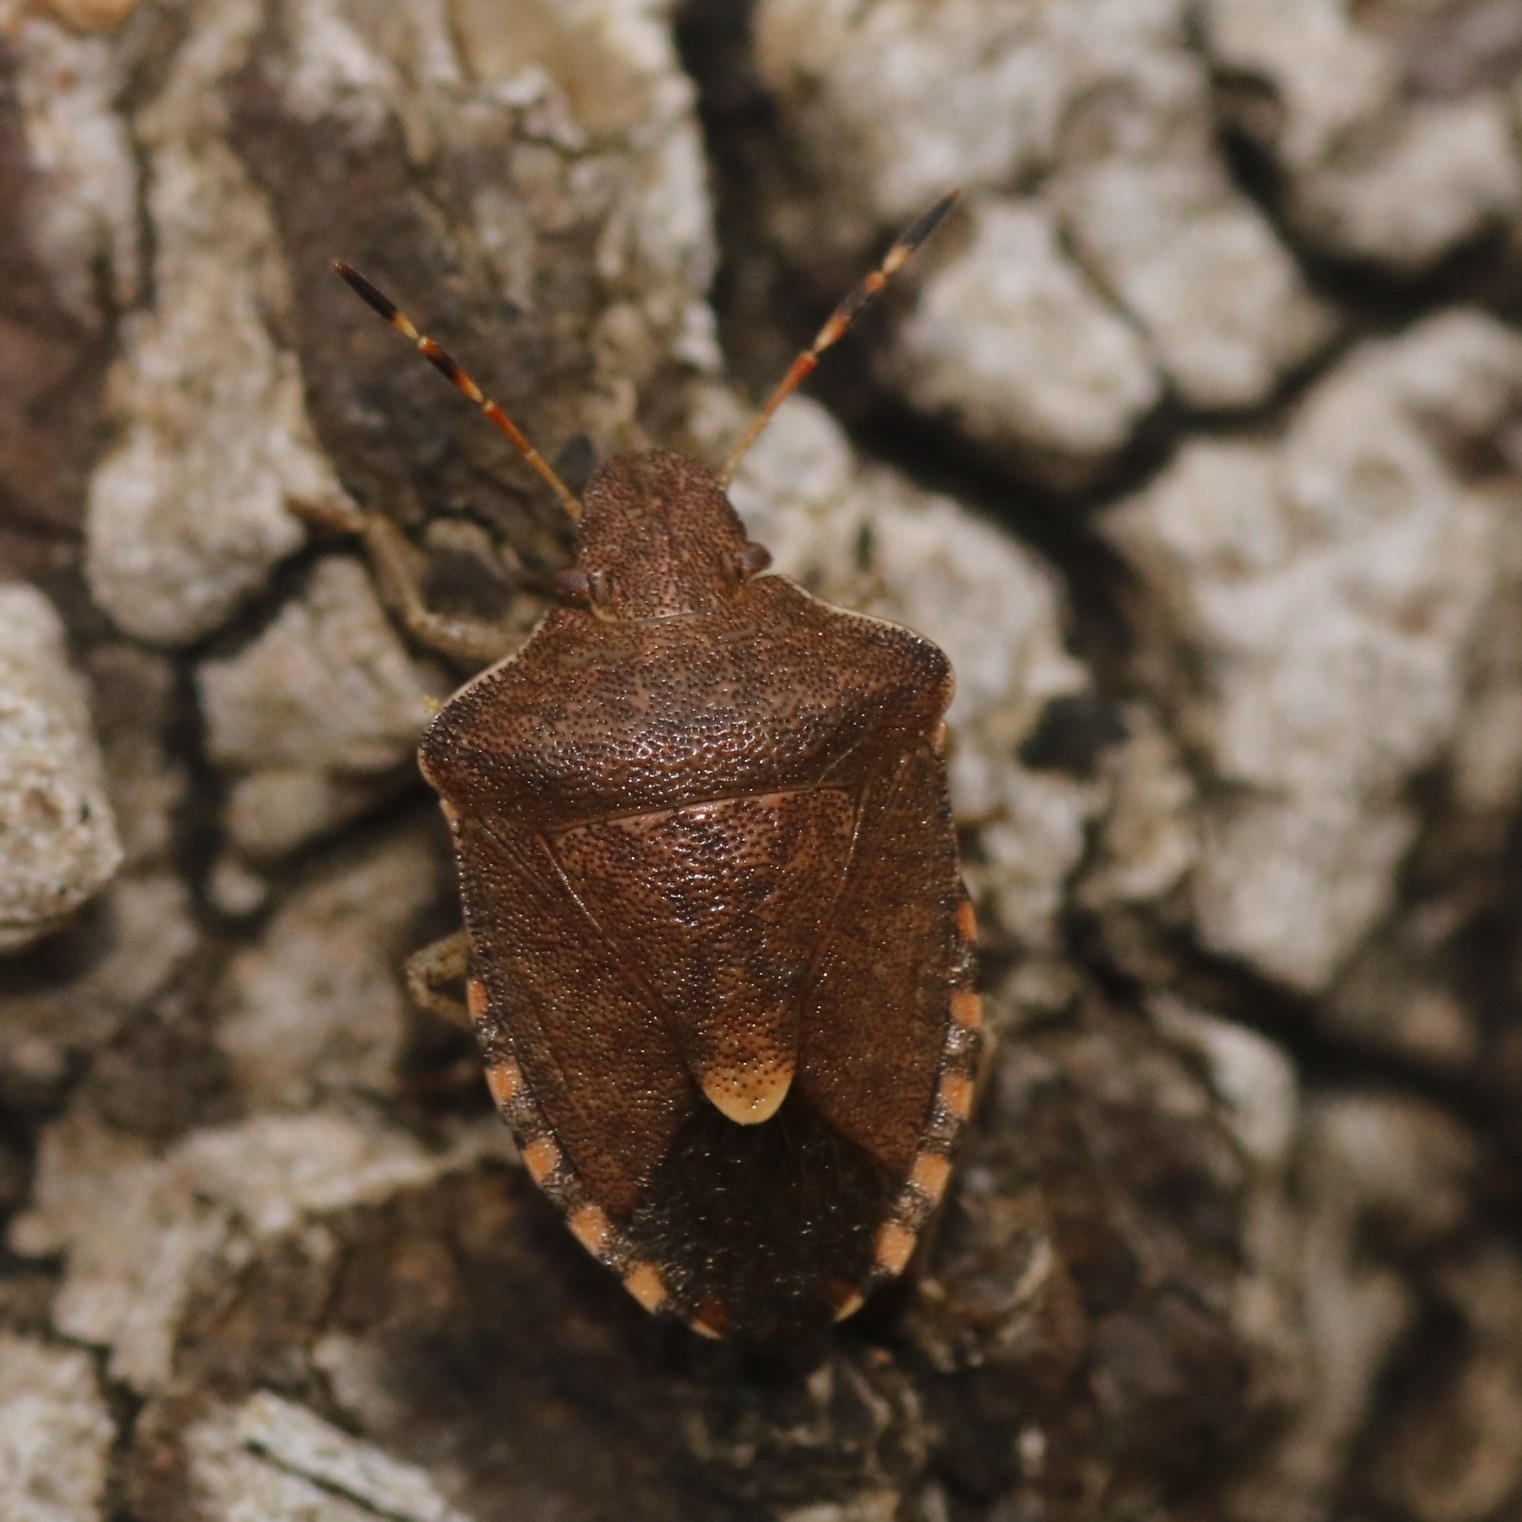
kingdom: Animalia
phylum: Arthropoda
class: Insecta
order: Hemiptera
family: Pentatomidae
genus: Holcostethus
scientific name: Holcostethus strictus
